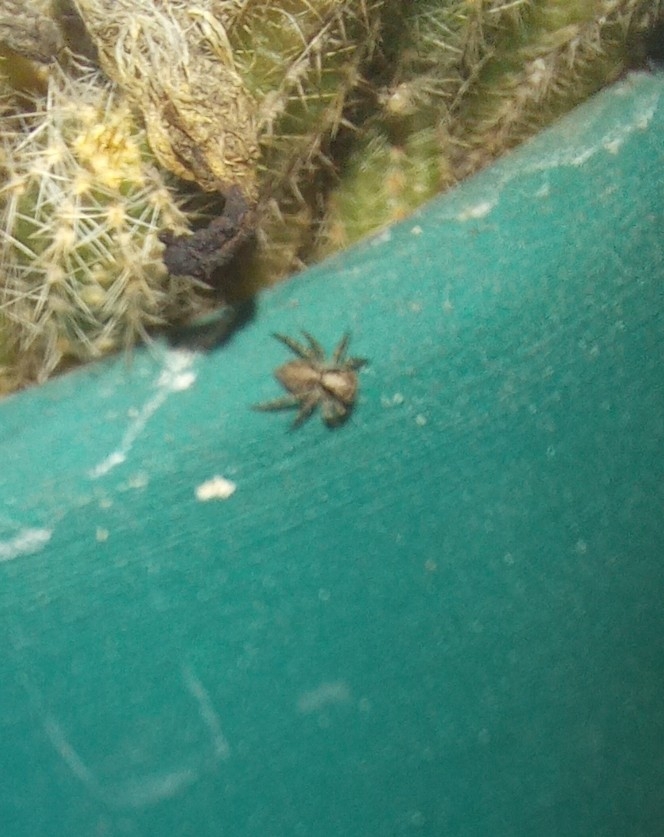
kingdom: Animalia
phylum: Arthropoda
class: Arachnida
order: Araneae
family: Salticidae
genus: Saitis
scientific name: Saitis variegatus
